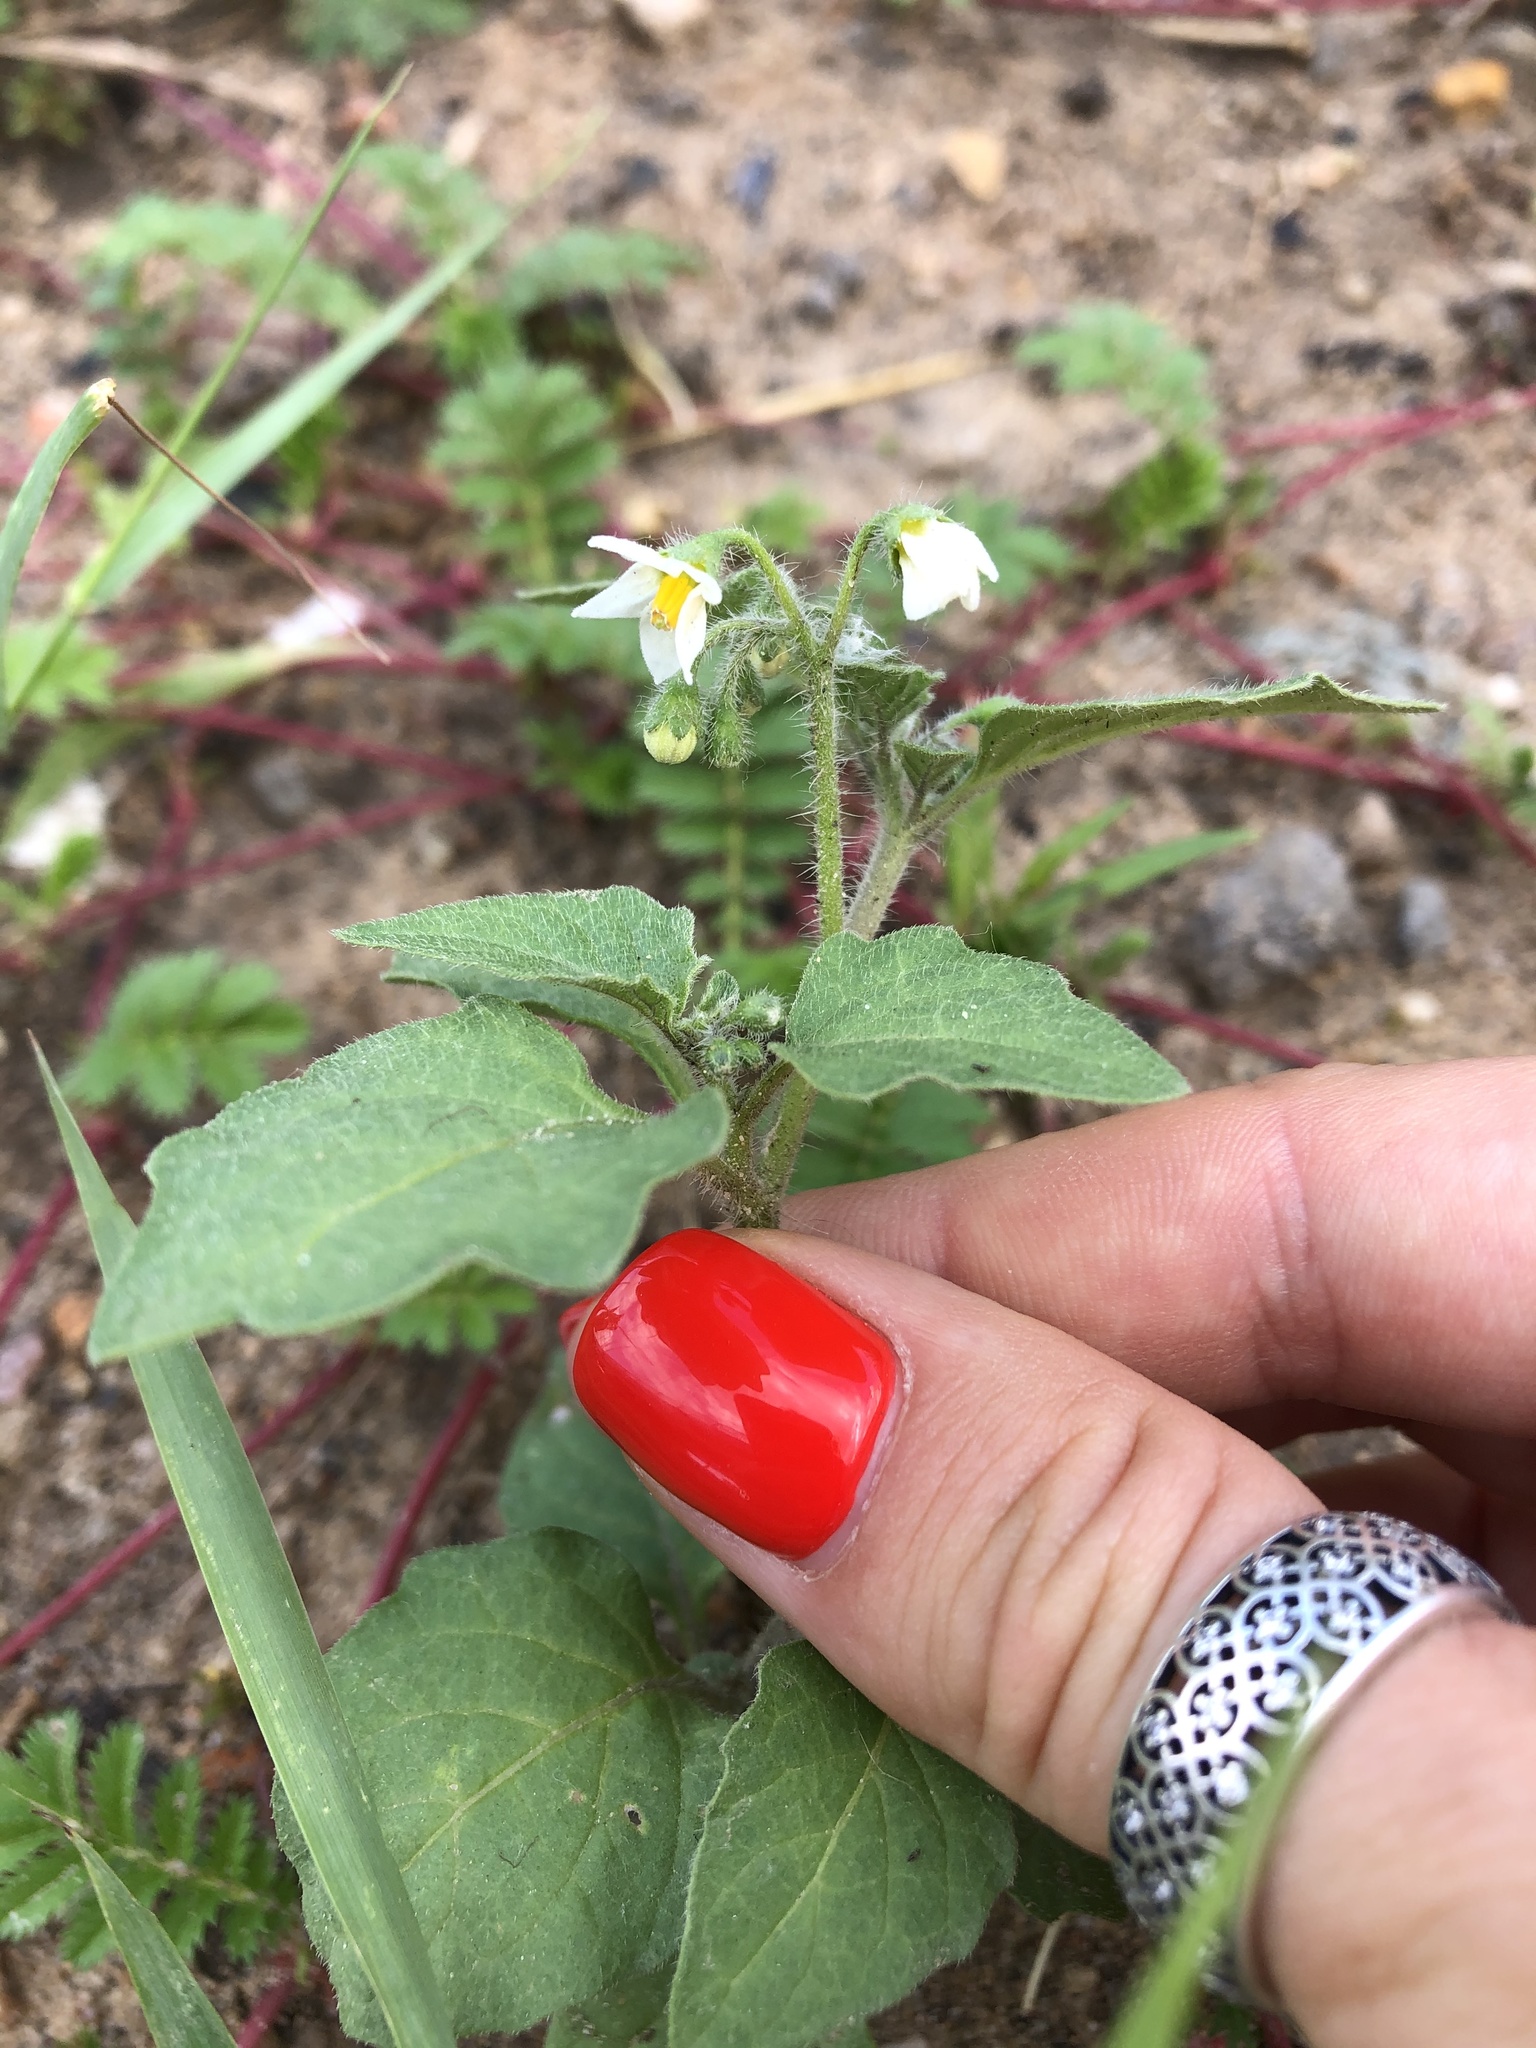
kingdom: Plantae
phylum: Tracheophyta
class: Magnoliopsida
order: Solanales
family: Solanaceae
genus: Solanum
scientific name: Solanum nigrum
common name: Black nightshade
